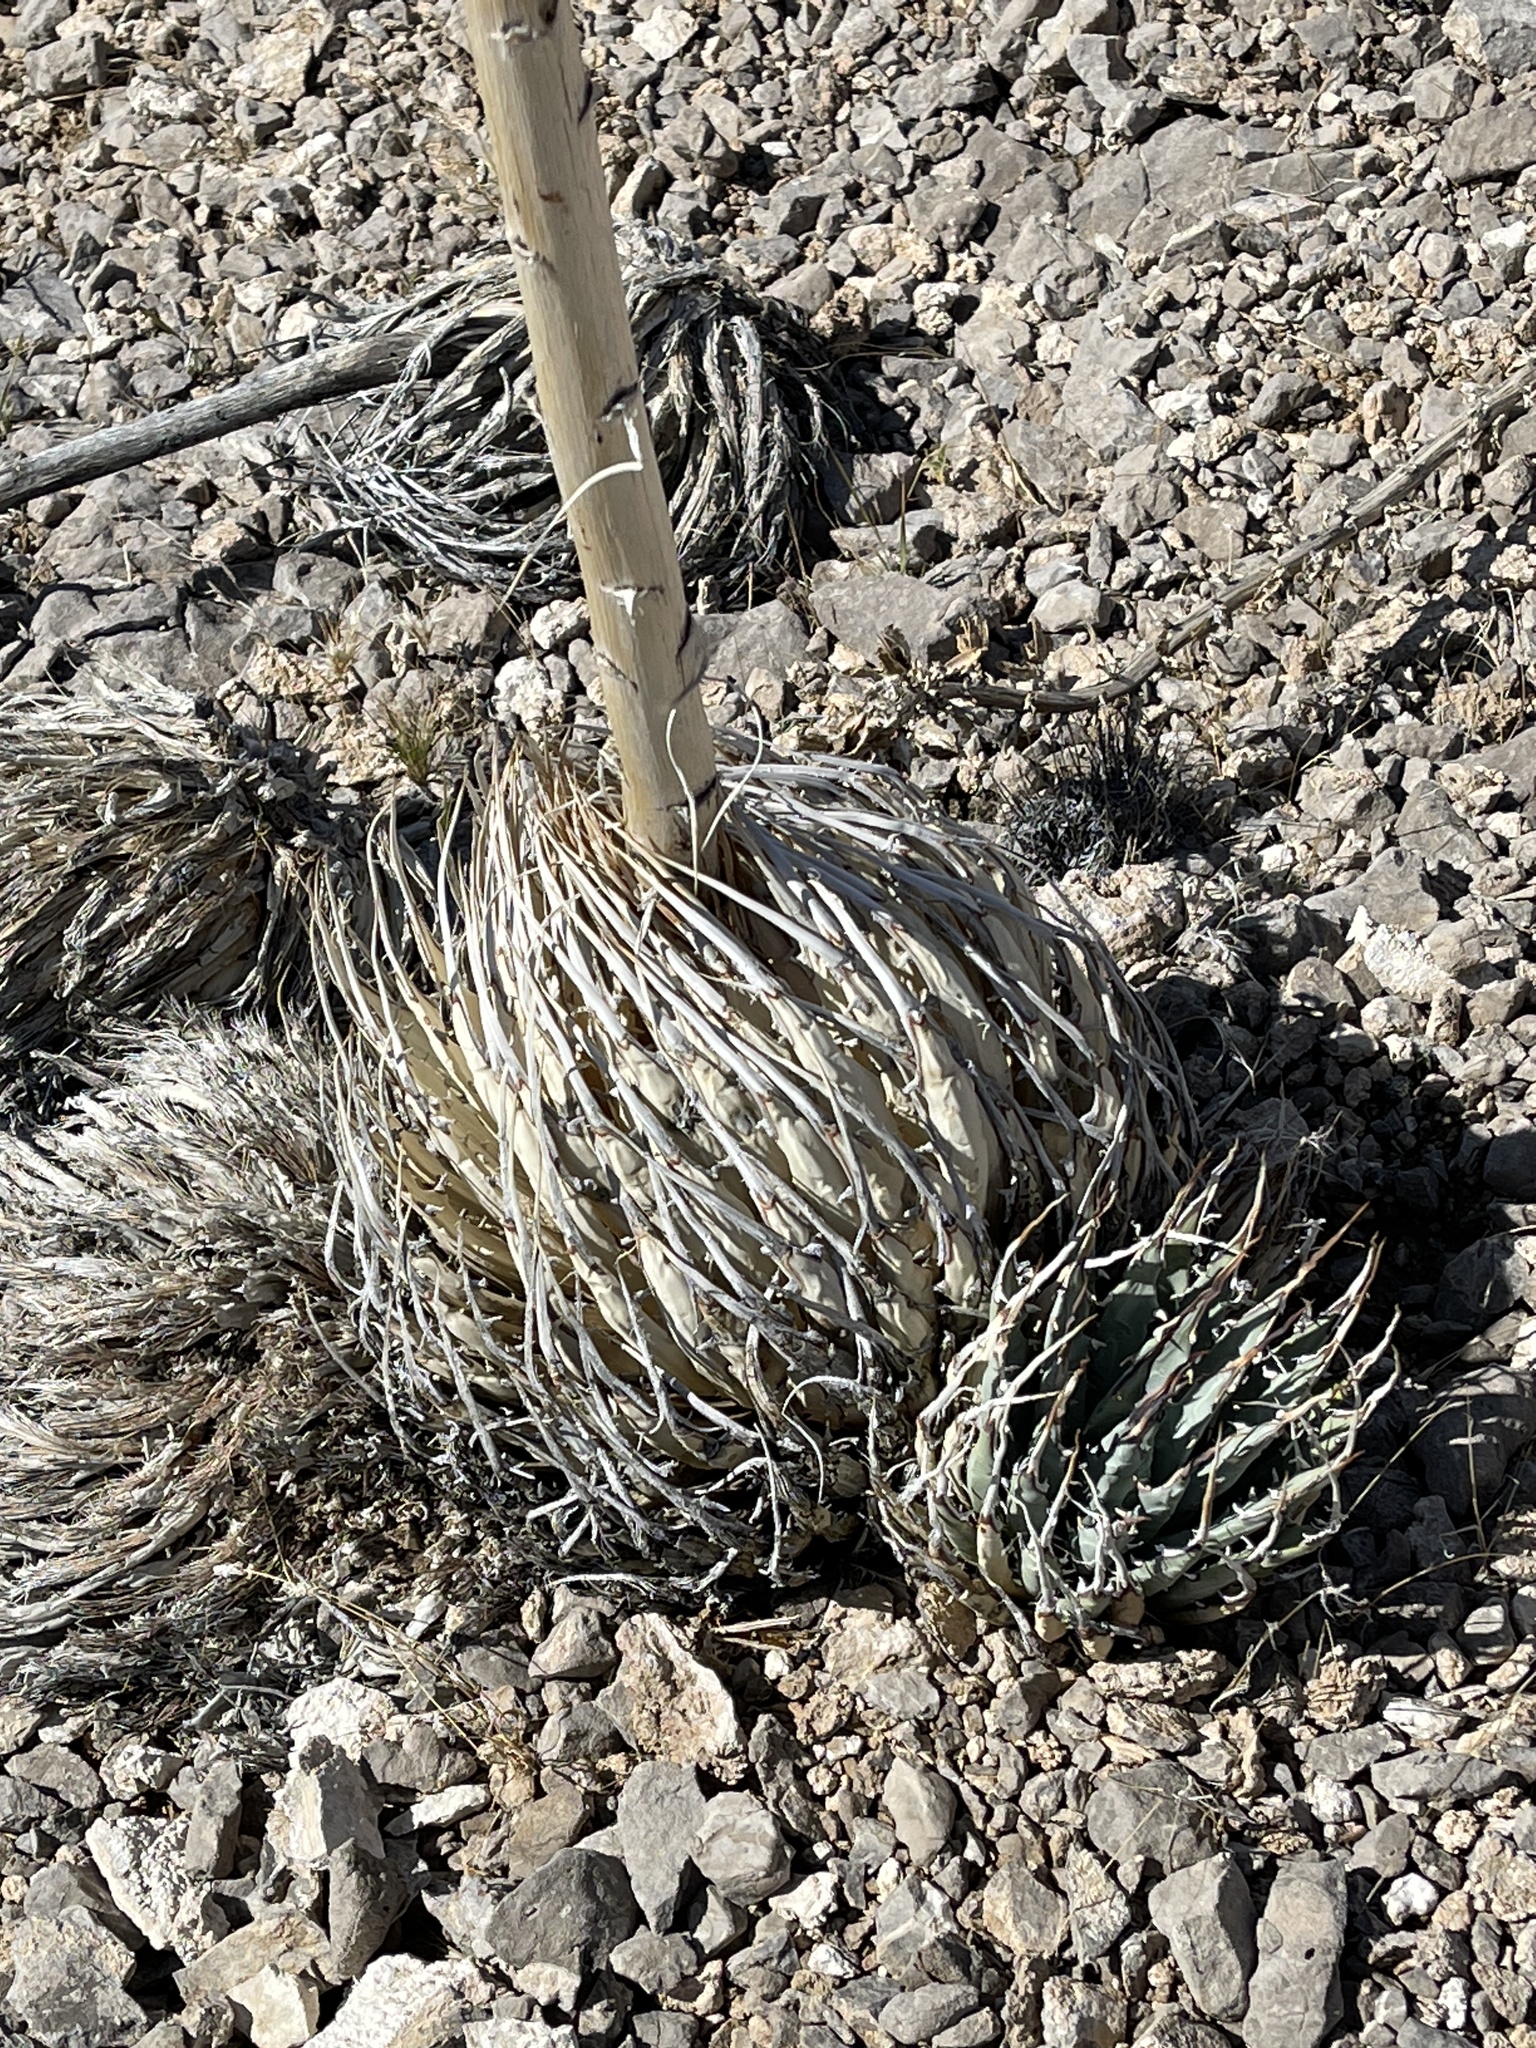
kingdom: Plantae
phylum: Tracheophyta
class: Liliopsida
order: Asparagales
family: Asparagaceae
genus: Agave
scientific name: Agave utahensis
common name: Utah agave
